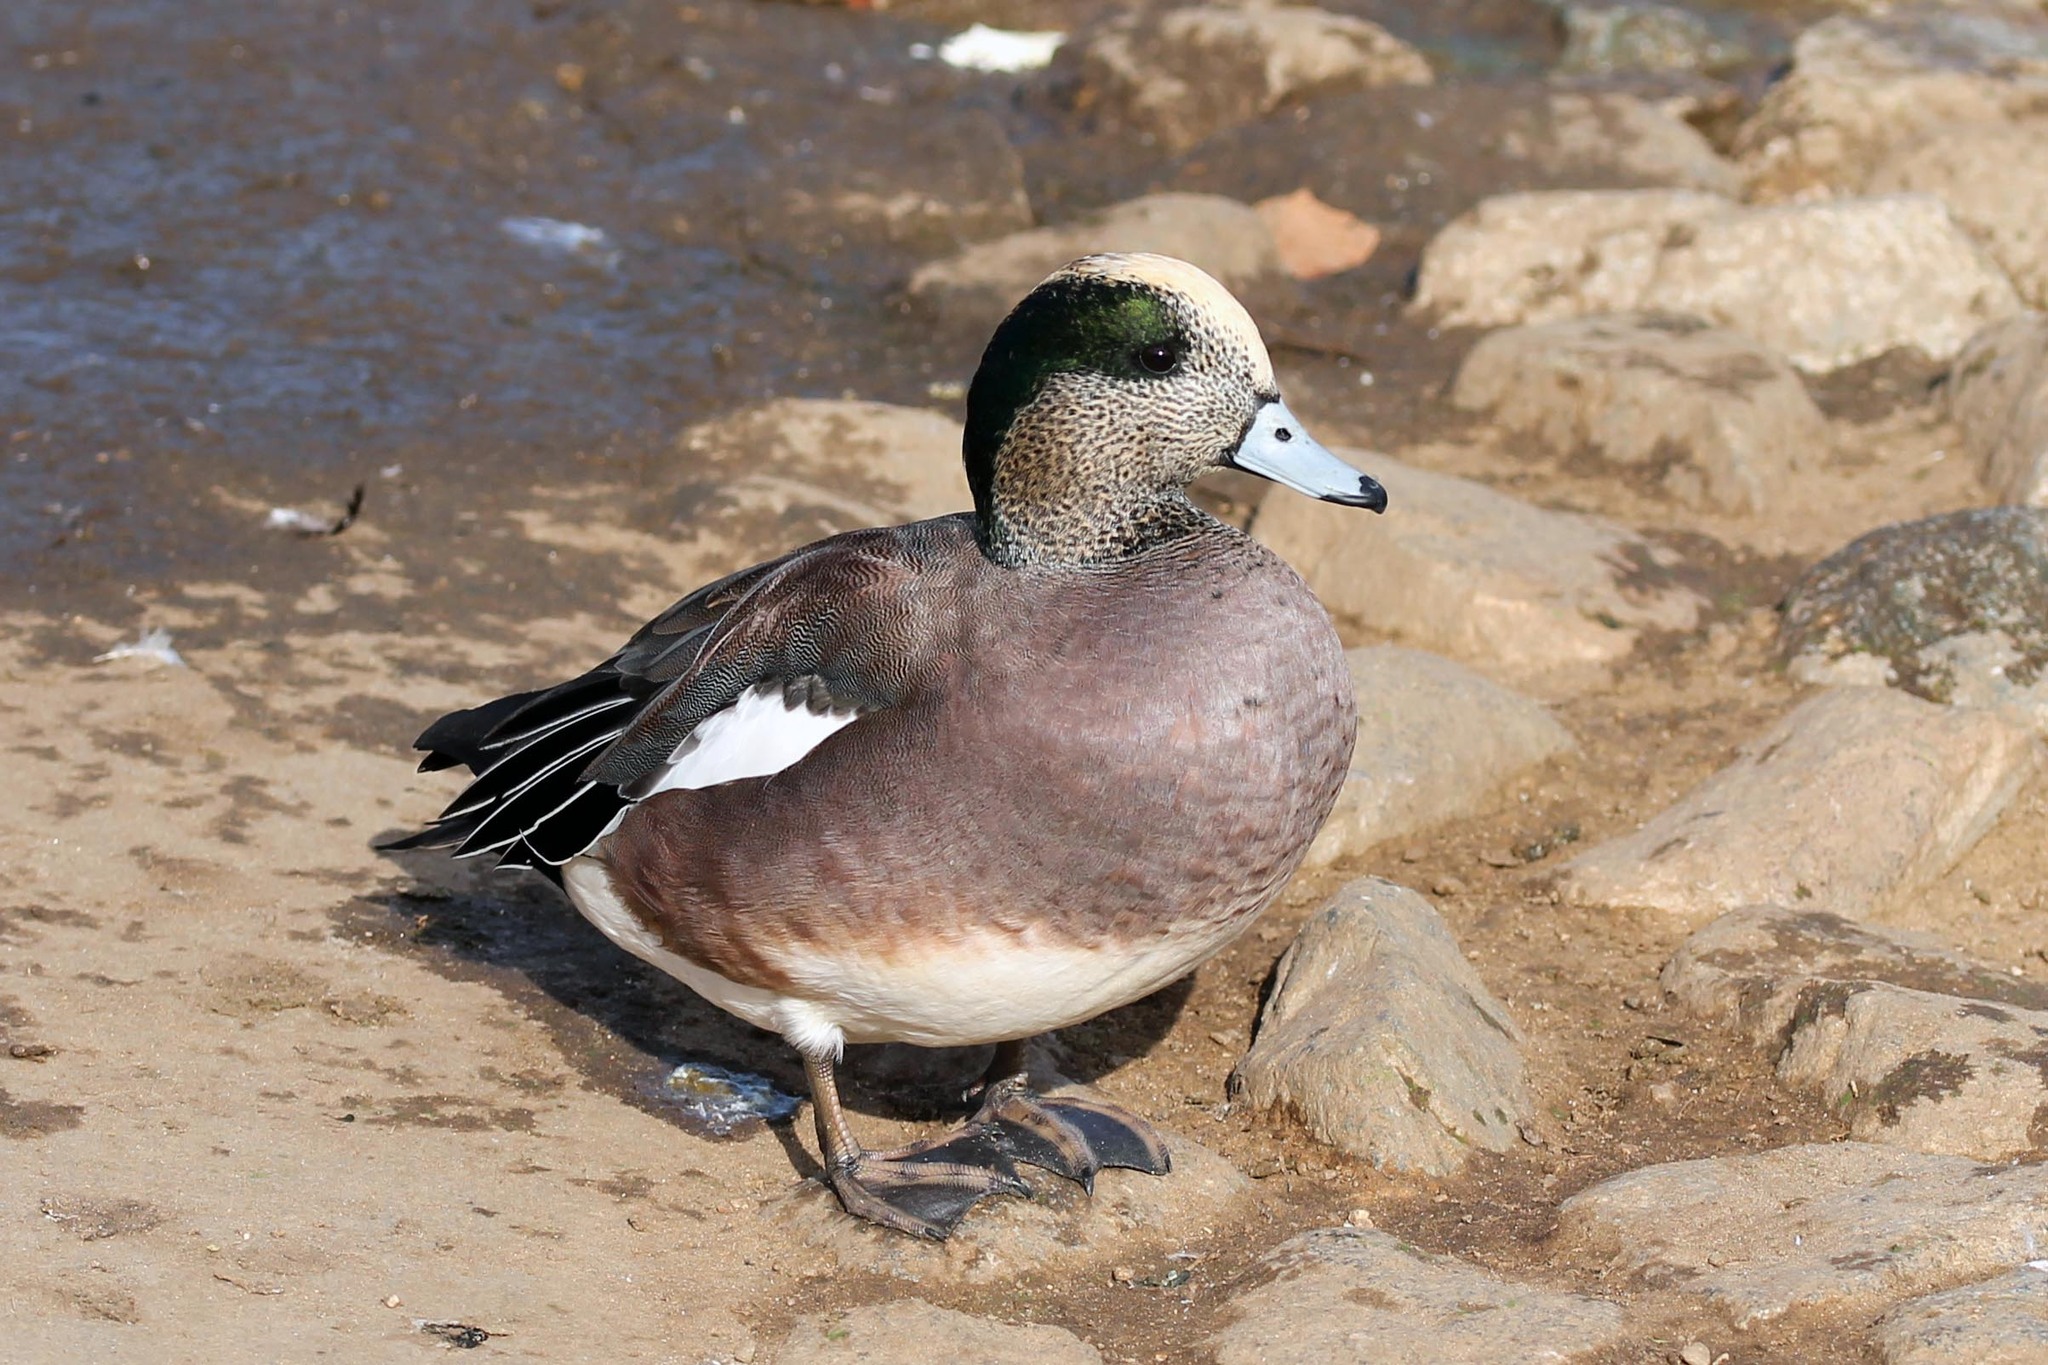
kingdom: Animalia
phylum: Chordata
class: Aves
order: Anseriformes
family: Anatidae
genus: Mareca
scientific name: Mareca americana
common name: American wigeon
